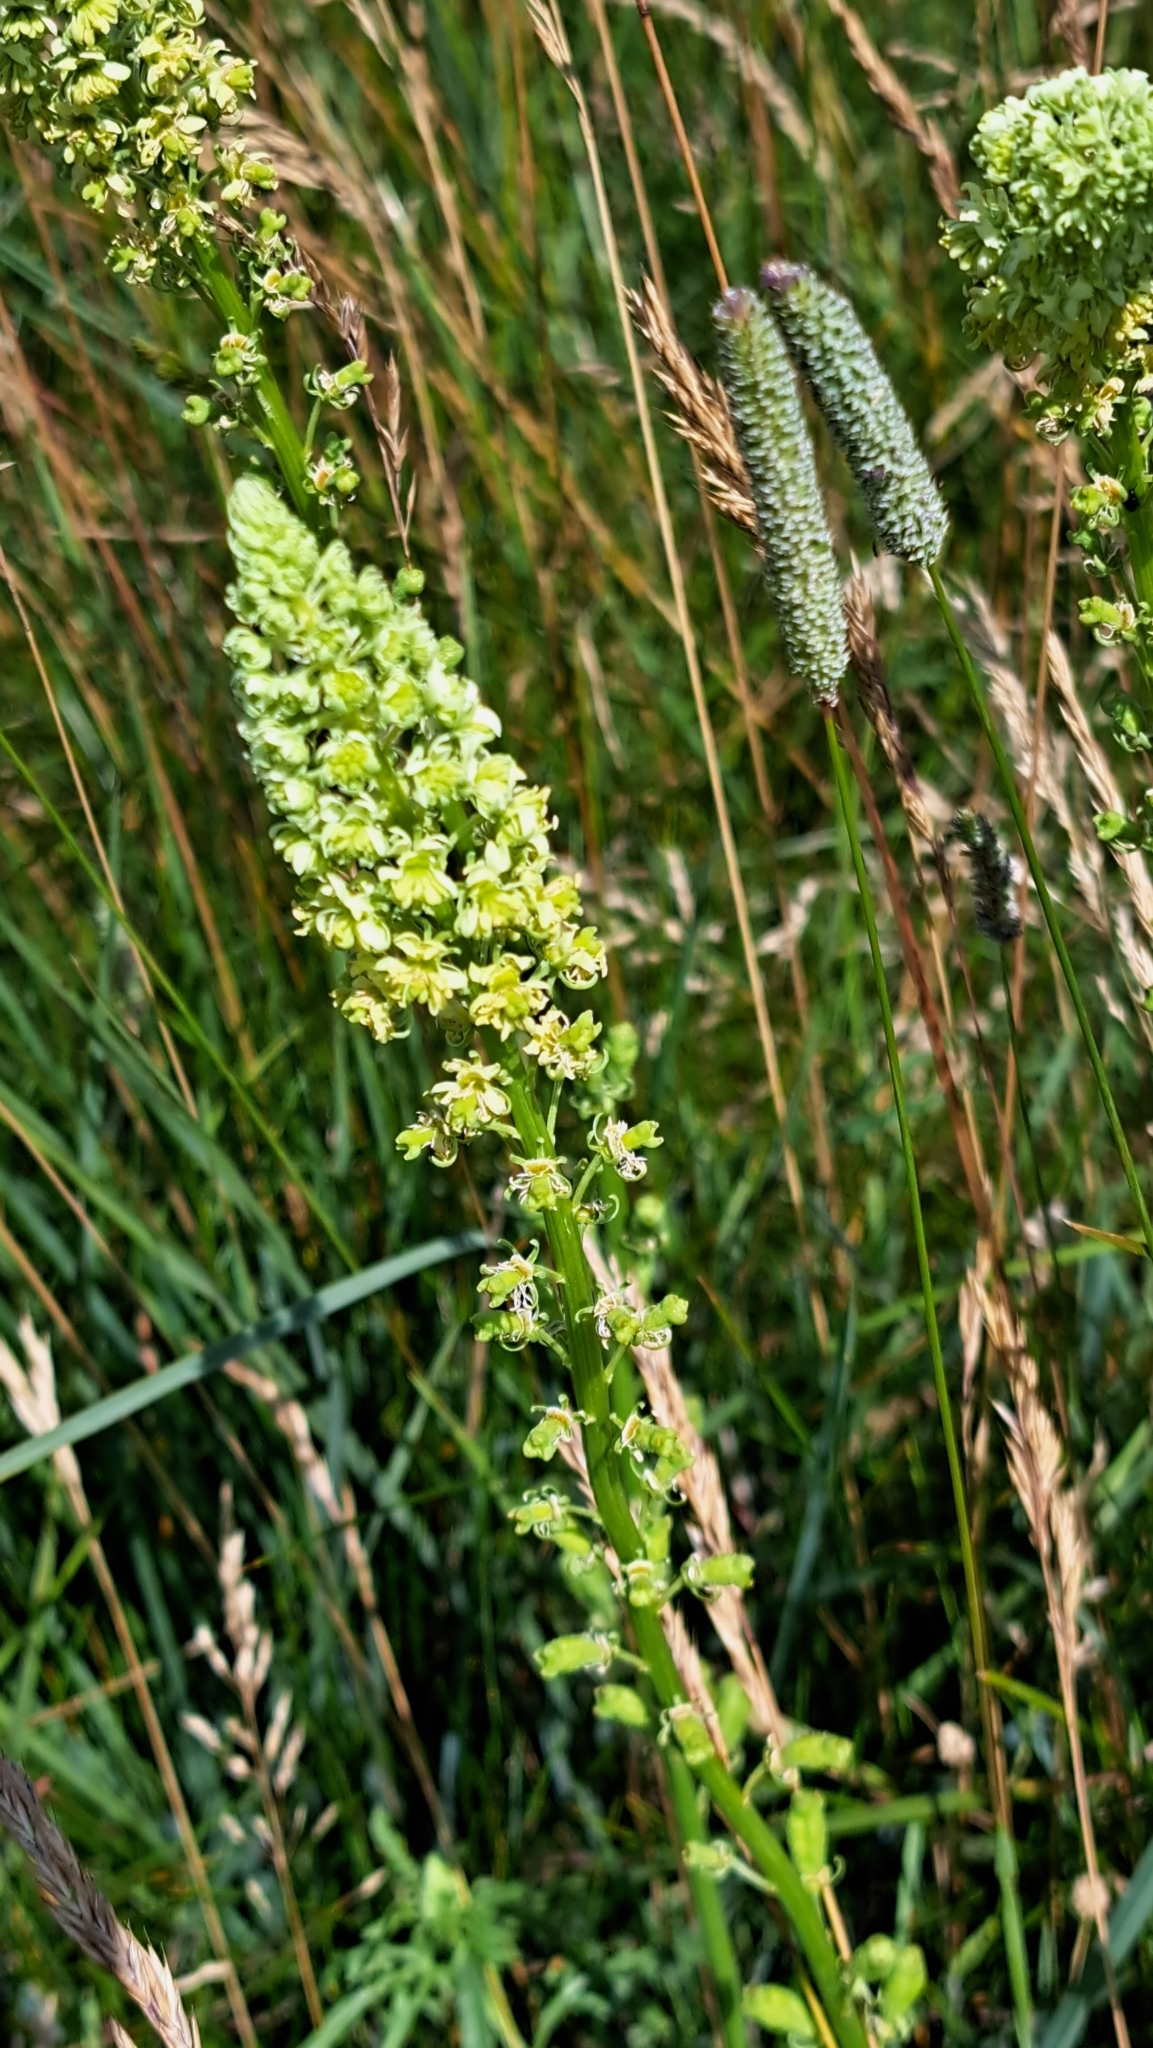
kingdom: Plantae
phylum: Tracheophyta
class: Magnoliopsida
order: Brassicales
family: Resedaceae
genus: Reseda
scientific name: Reseda lutea
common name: Wild mignonette
